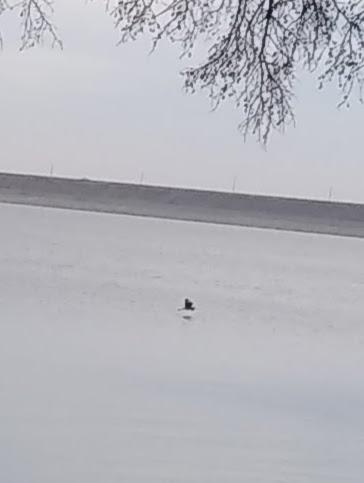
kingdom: Animalia
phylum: Chordata
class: Aves
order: Pelecaniformes
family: Ardeidae
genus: Ardea
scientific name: Ardea herodias
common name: Great blue heron
